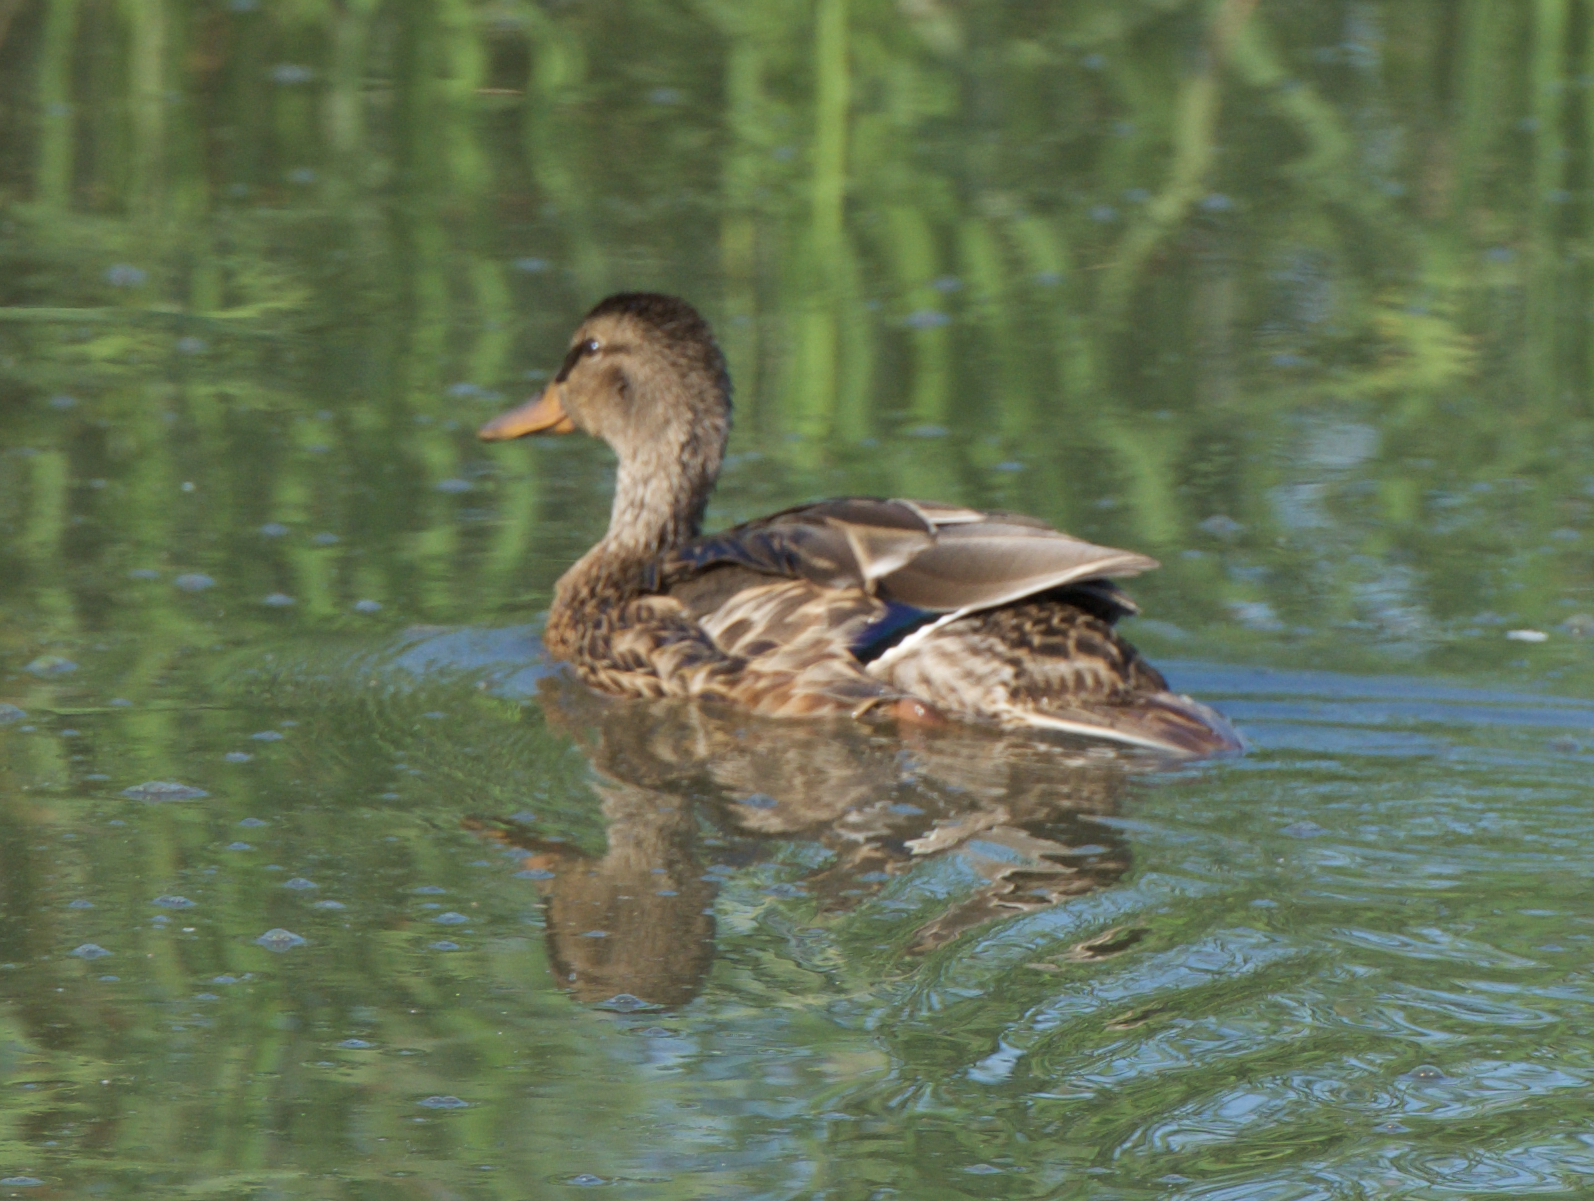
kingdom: Animalia
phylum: Chordata
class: Aves
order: Anseriformes
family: Anatidae
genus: Anas
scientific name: Anas platyrhynchos
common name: Mallard
